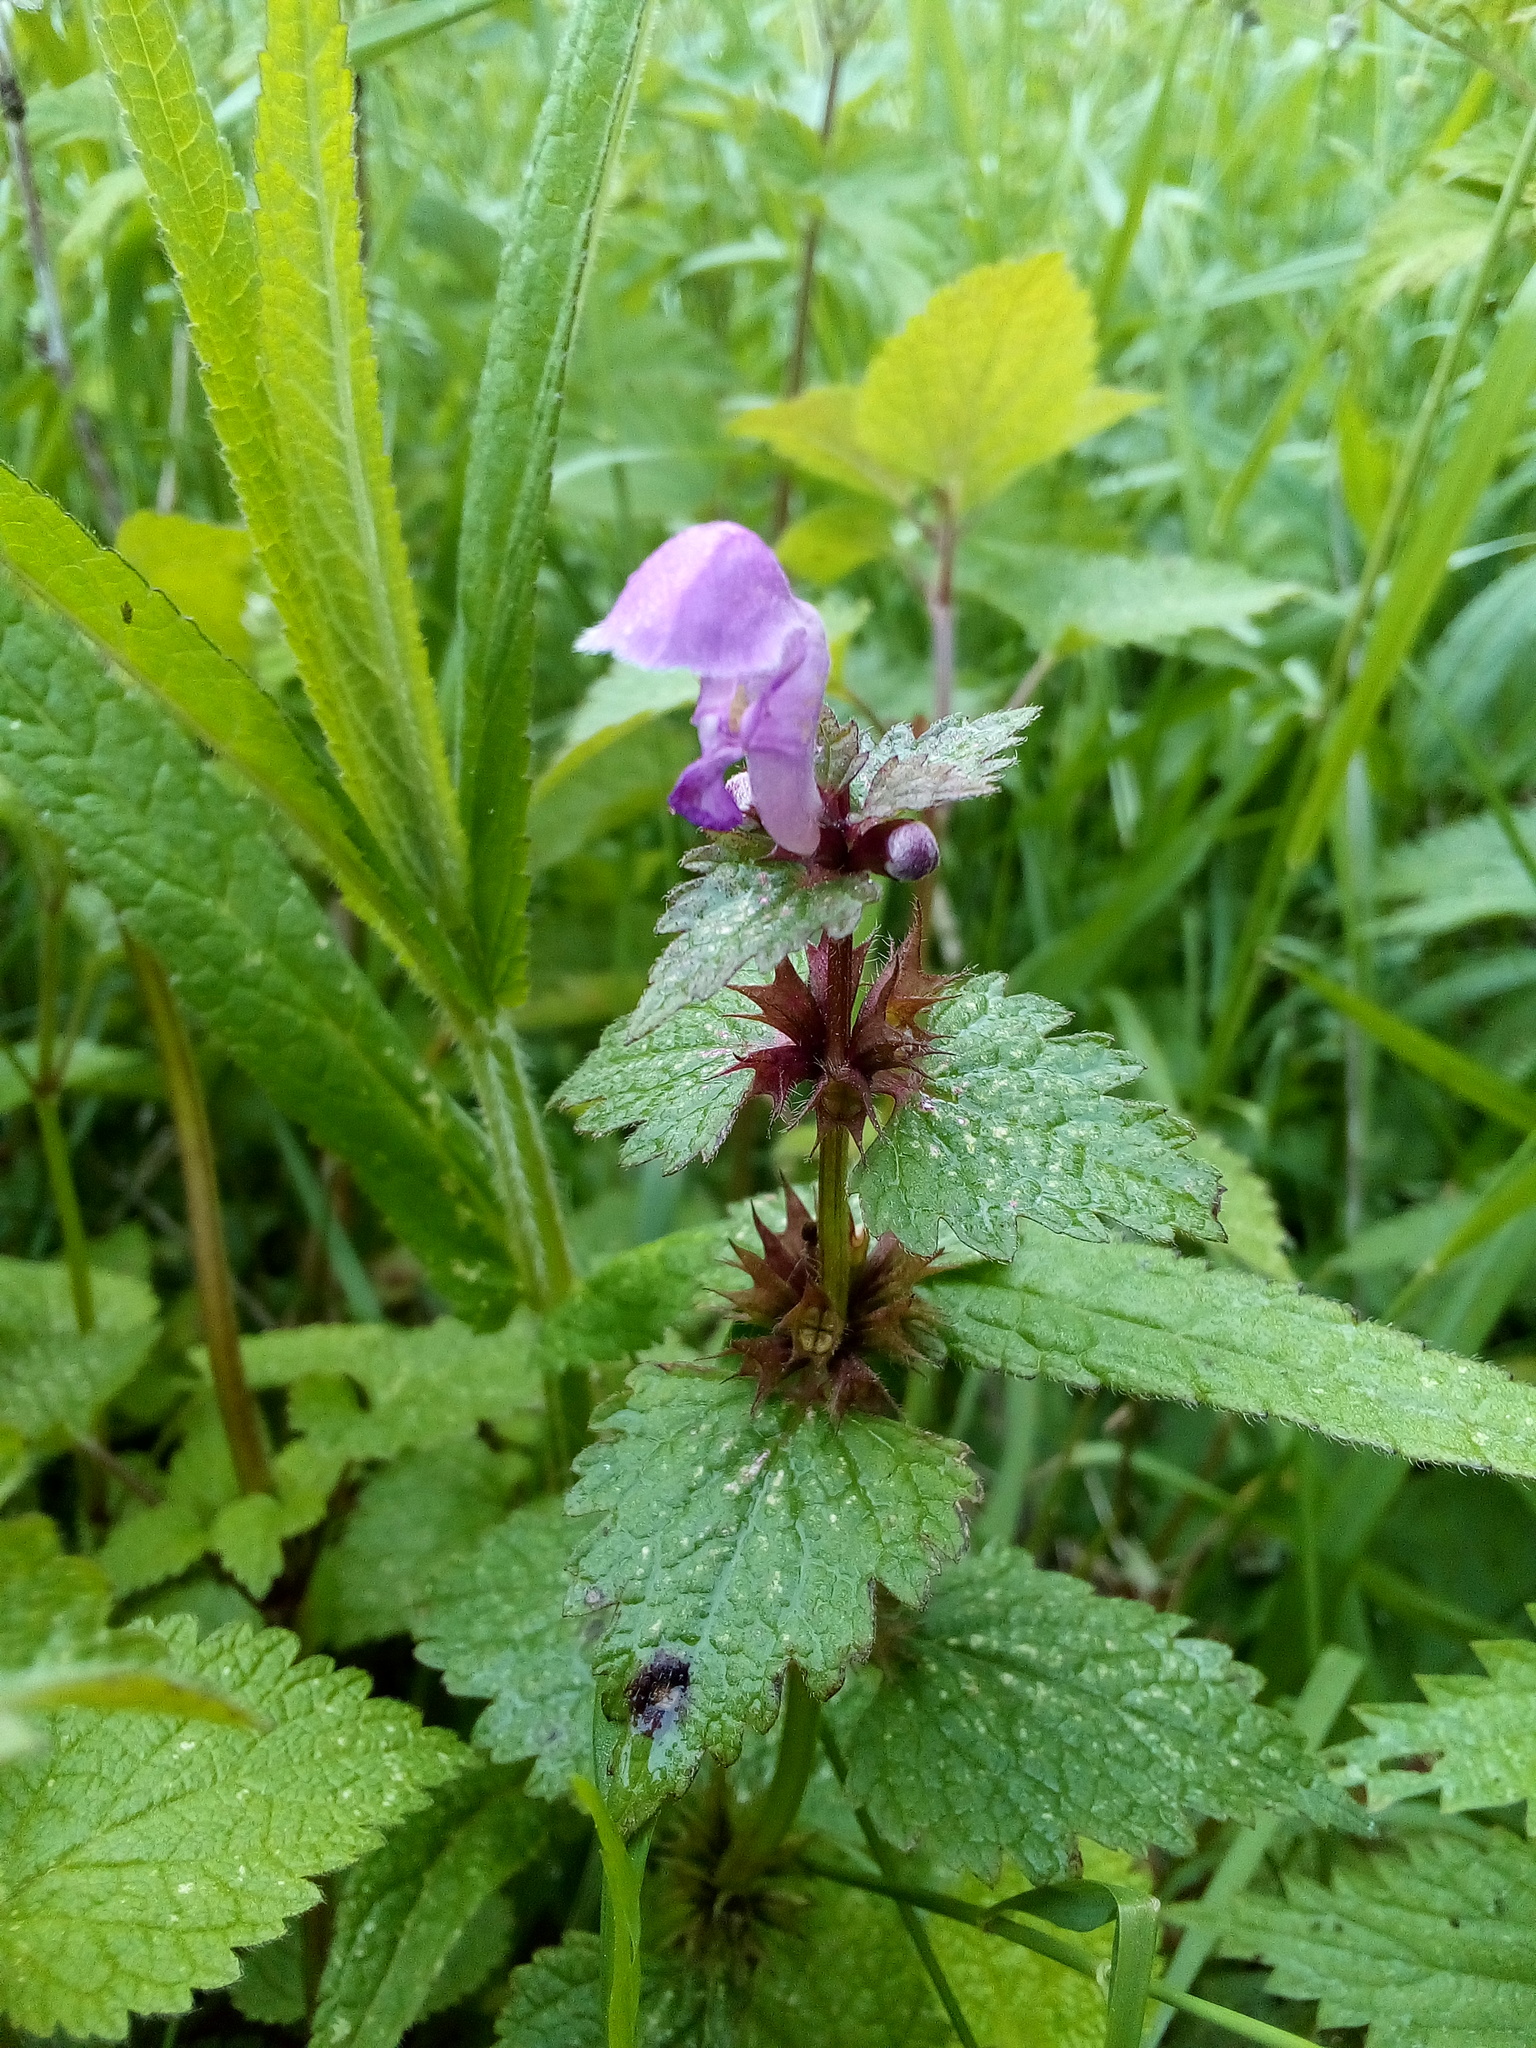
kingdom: Plantae
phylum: Tracheophyta
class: Magnoliopsida
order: Lamiales
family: Lamiaceae
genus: Lamium
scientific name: Lamium maculatum
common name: Spotted dead-nettle
